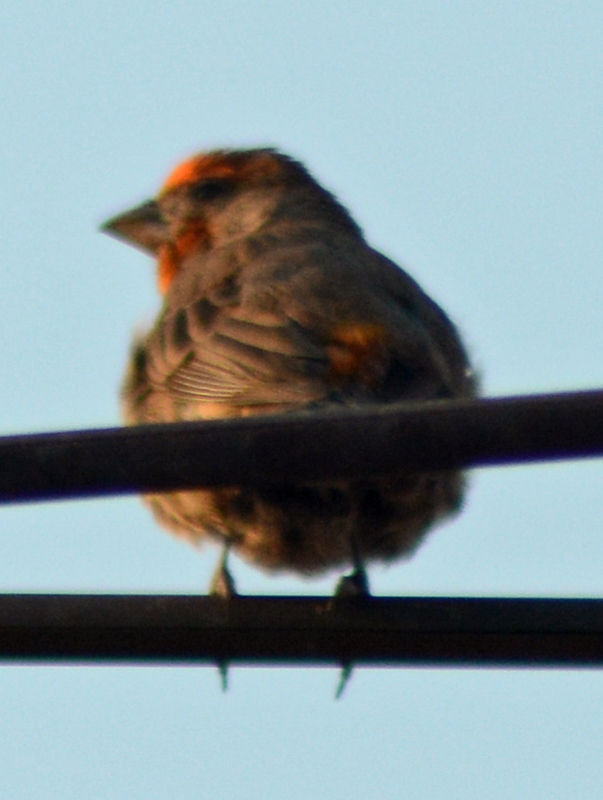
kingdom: Animalia
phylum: Chordata
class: Aves
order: Passeriformes
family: Fringillidae
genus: Haemorhous
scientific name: Haemorhous mexicanus
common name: House finch
